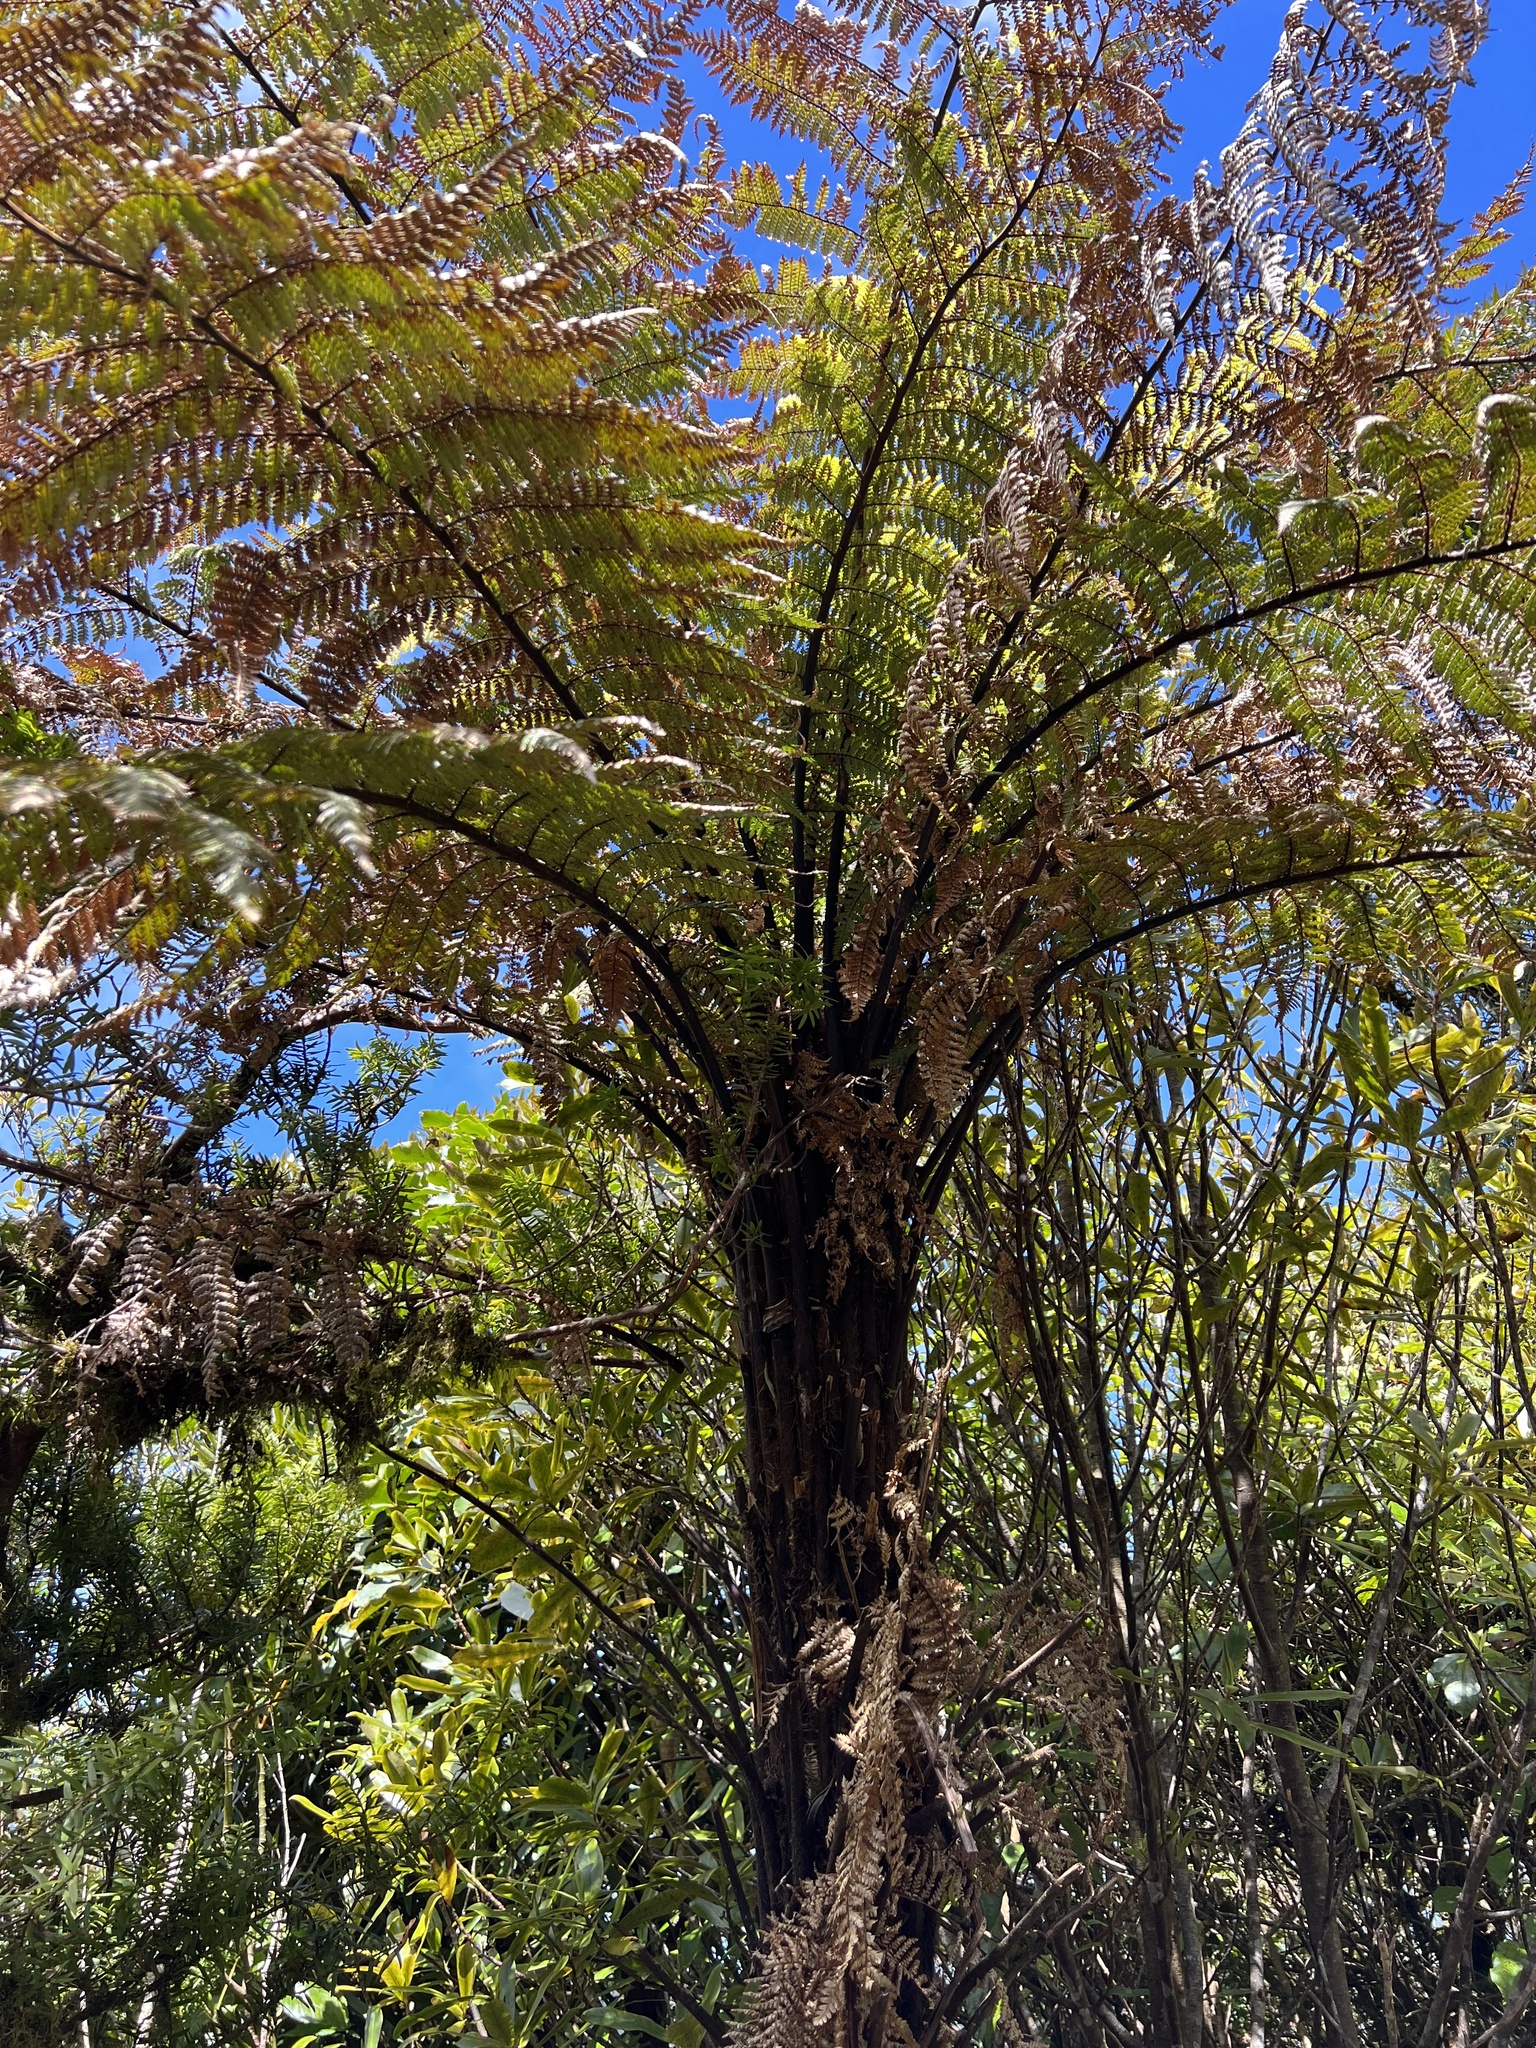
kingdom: Plantae
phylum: Tracheophyta
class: Polypodiopsida
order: Cyatheales
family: Dicksoniaceae
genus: Dicksonia
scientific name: Dicksonia squarrosa
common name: Hard treefern
